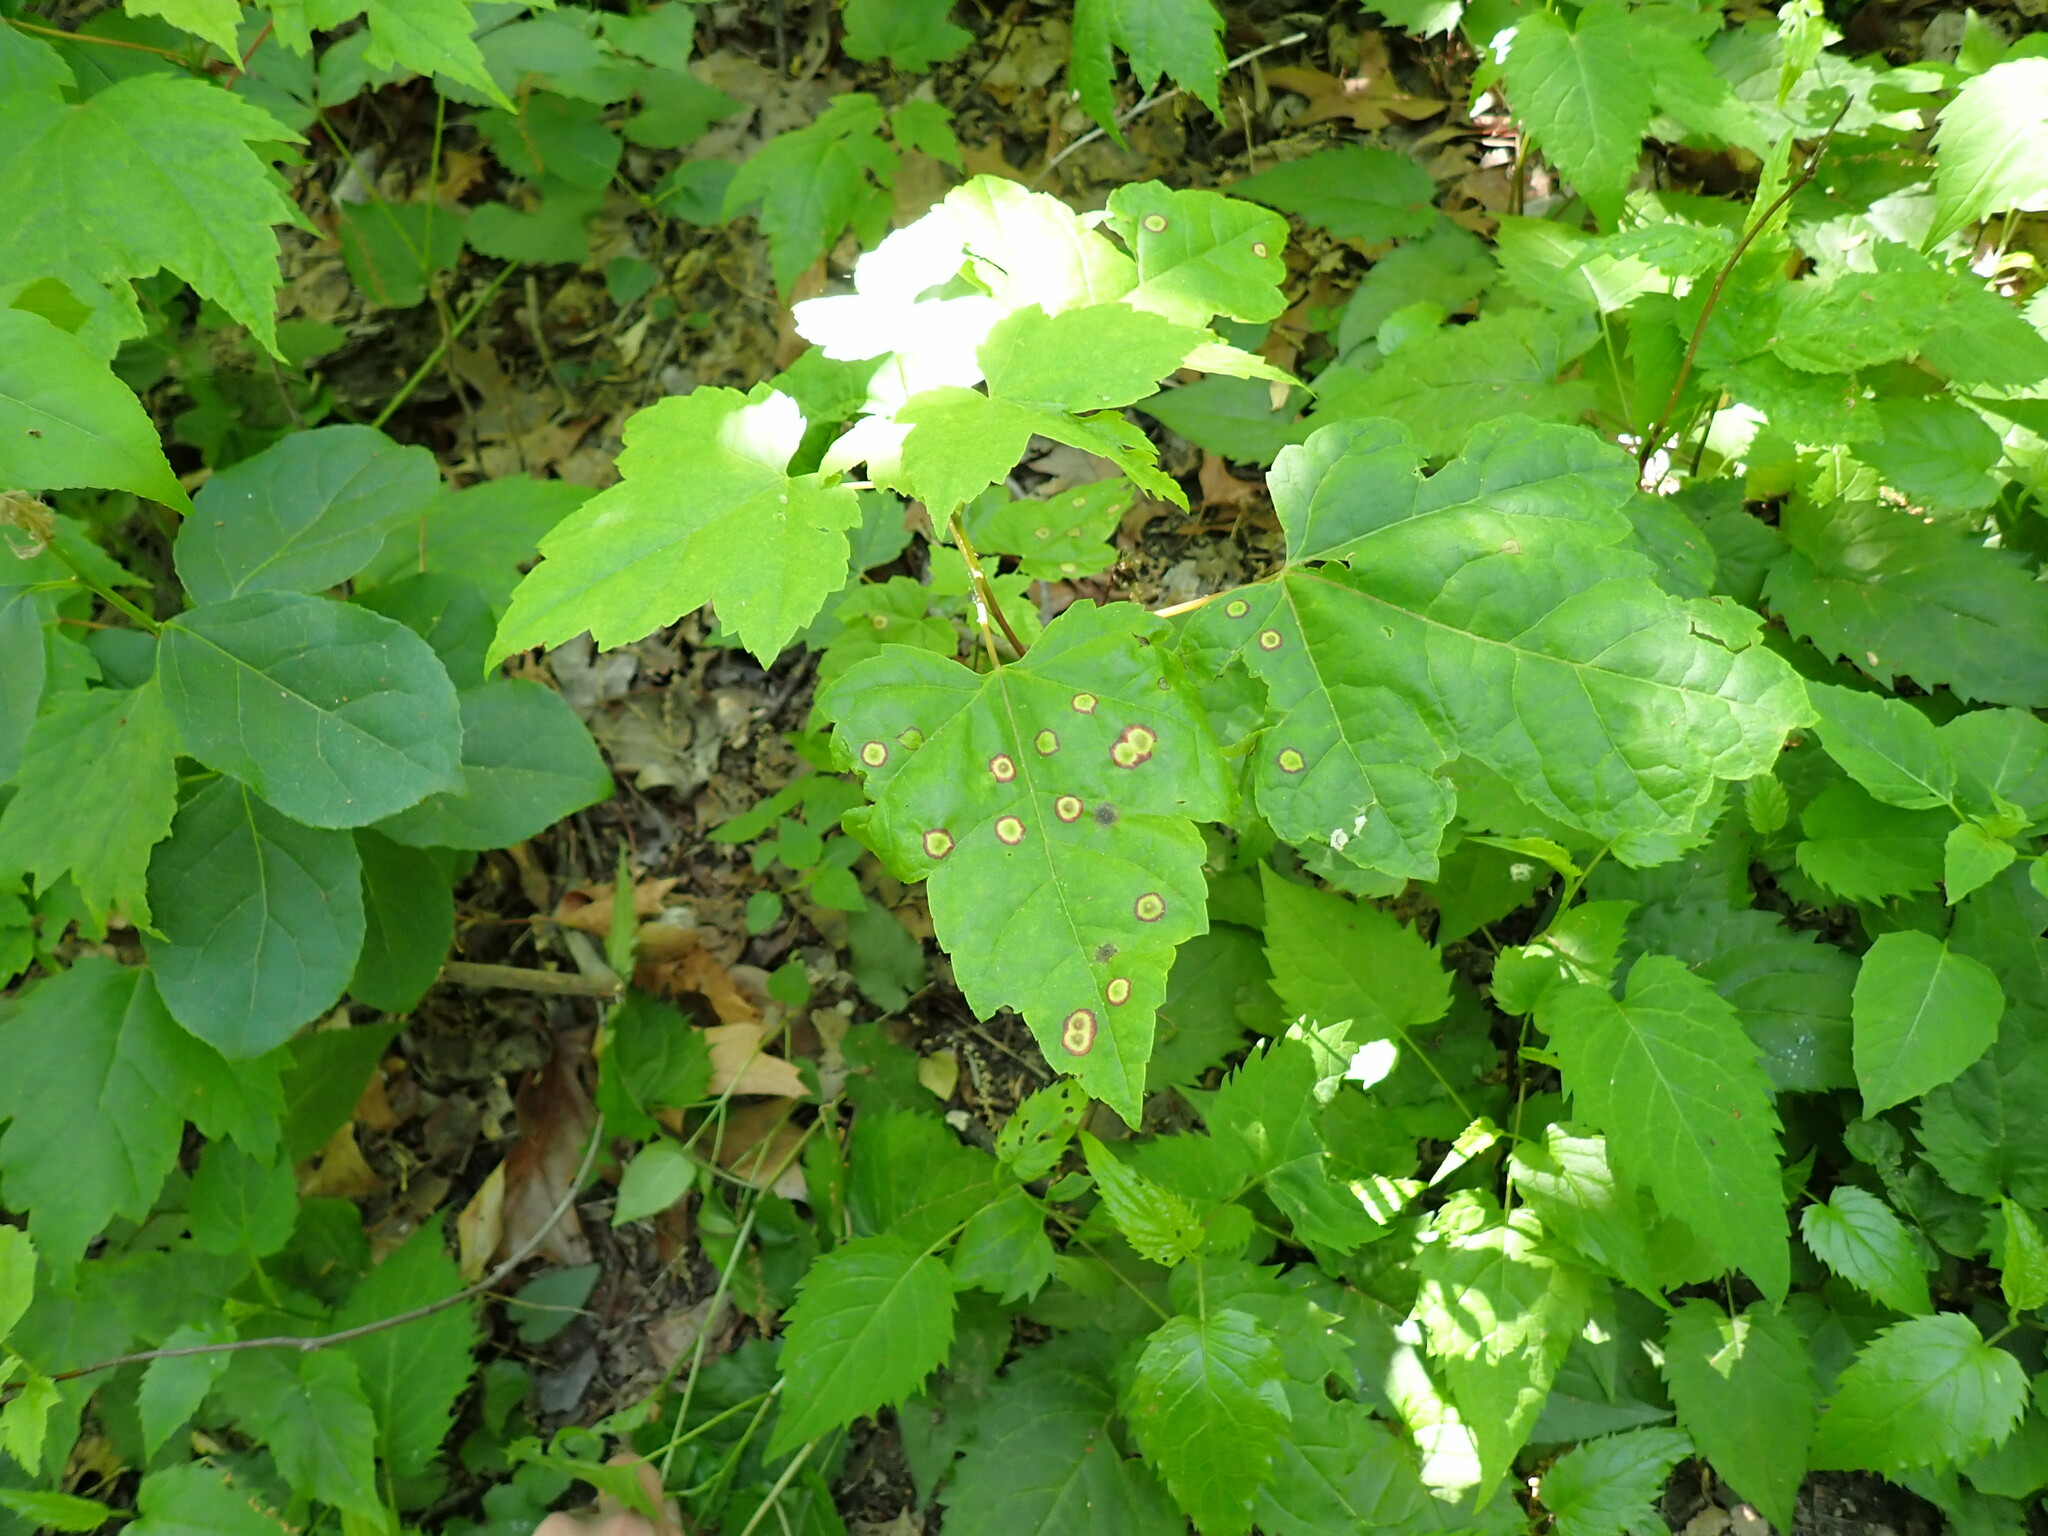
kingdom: Animalia
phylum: Arthropoda
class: Insecta
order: Diptera
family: Cecidomyiidae
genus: Acericecis
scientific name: Acericecis ocellaris
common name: Ocellate gall midge
